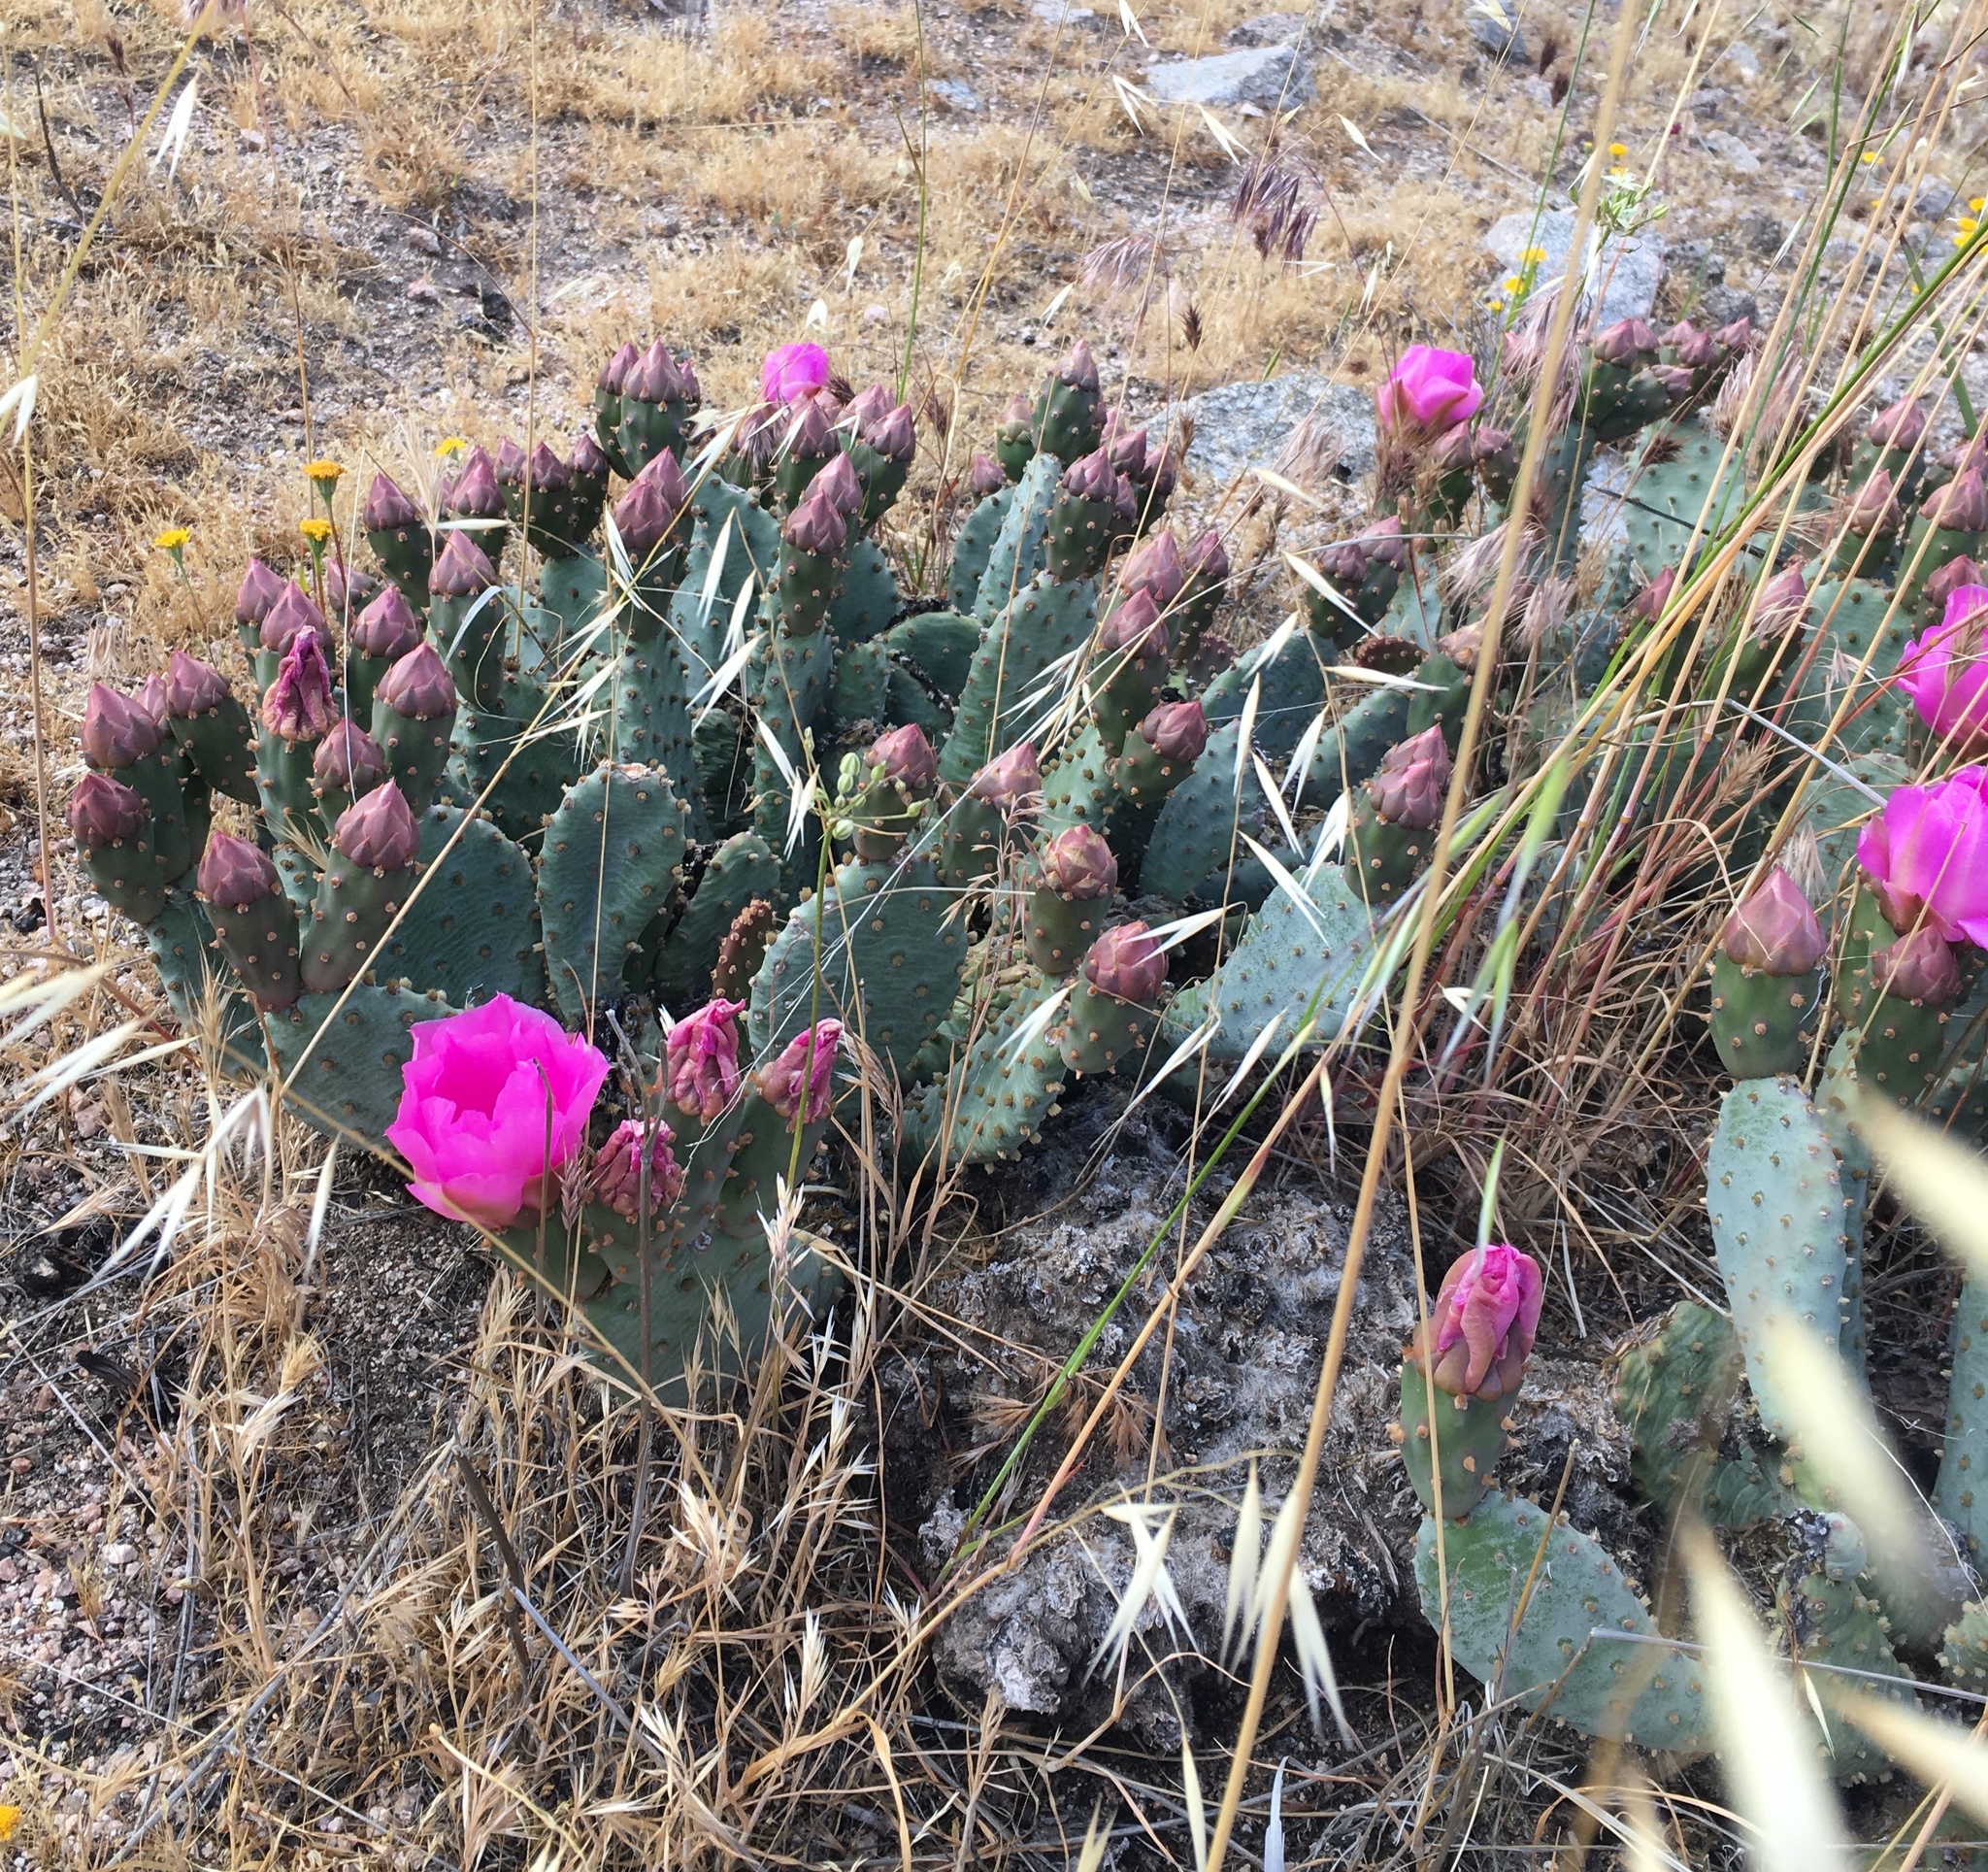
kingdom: Plantae
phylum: Tracheophyta
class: Magnoliopsida
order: Caryophyllales
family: Cactaceae
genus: Opuntia
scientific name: Opuntia basilaris
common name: Beavertail prickly-pear
